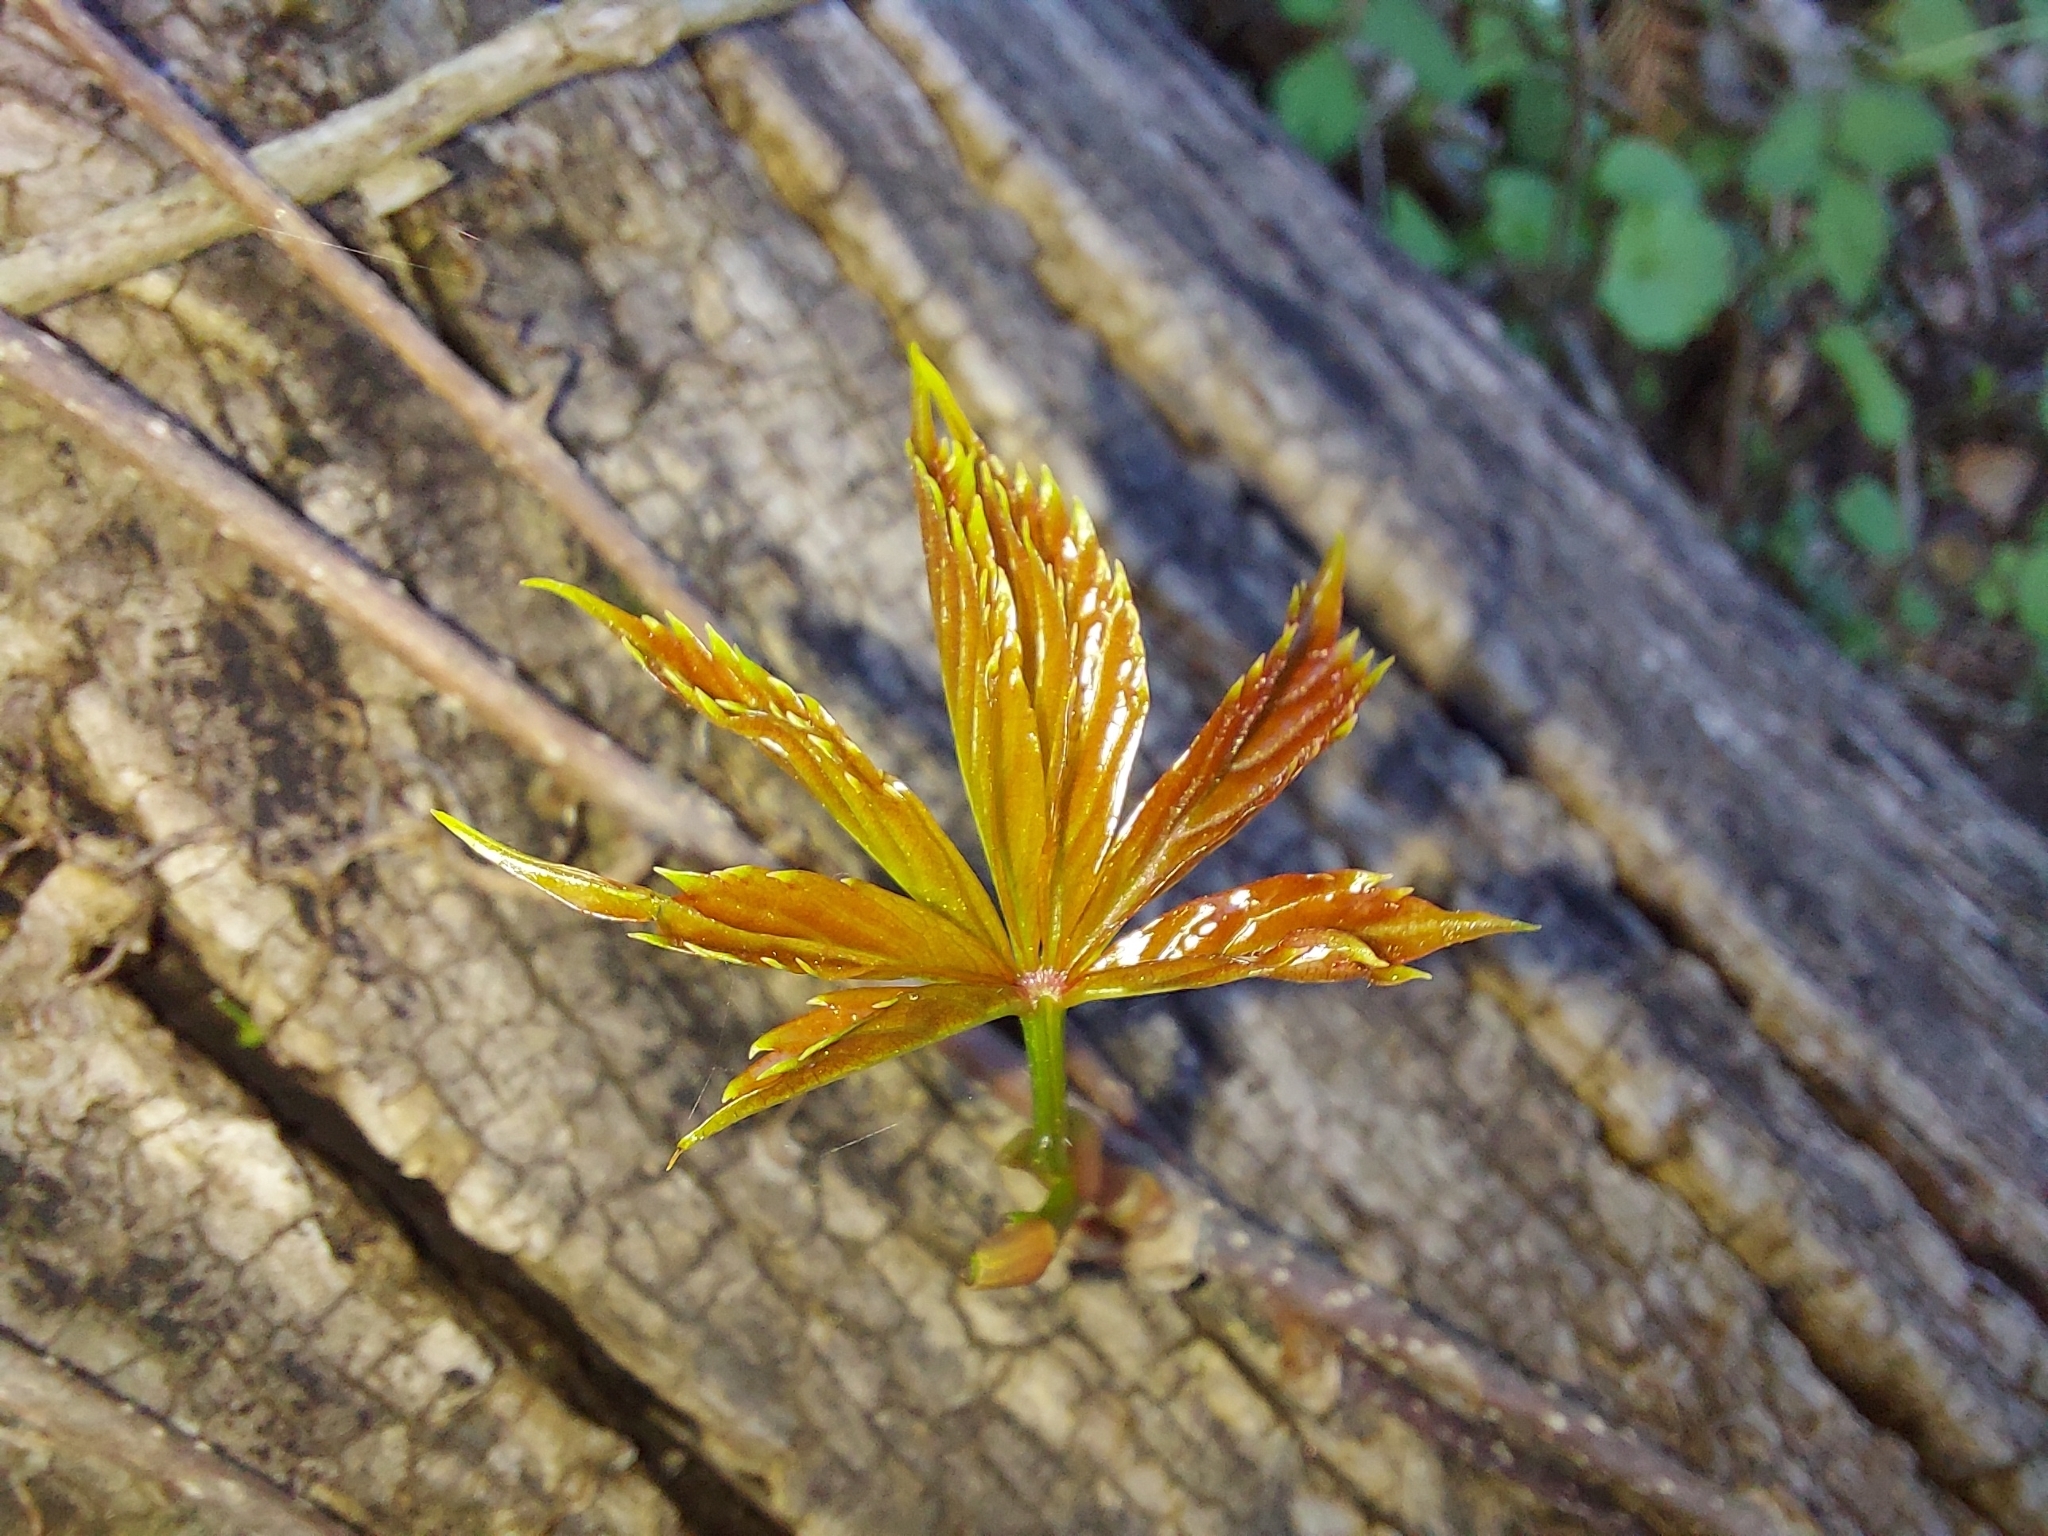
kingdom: Plantae
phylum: Tracheophyta
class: Magnoliopsida
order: Vitales
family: Vitaceae
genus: Parthenocissus
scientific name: Parthenocissus quinquefolia
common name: Virginia-creeper
